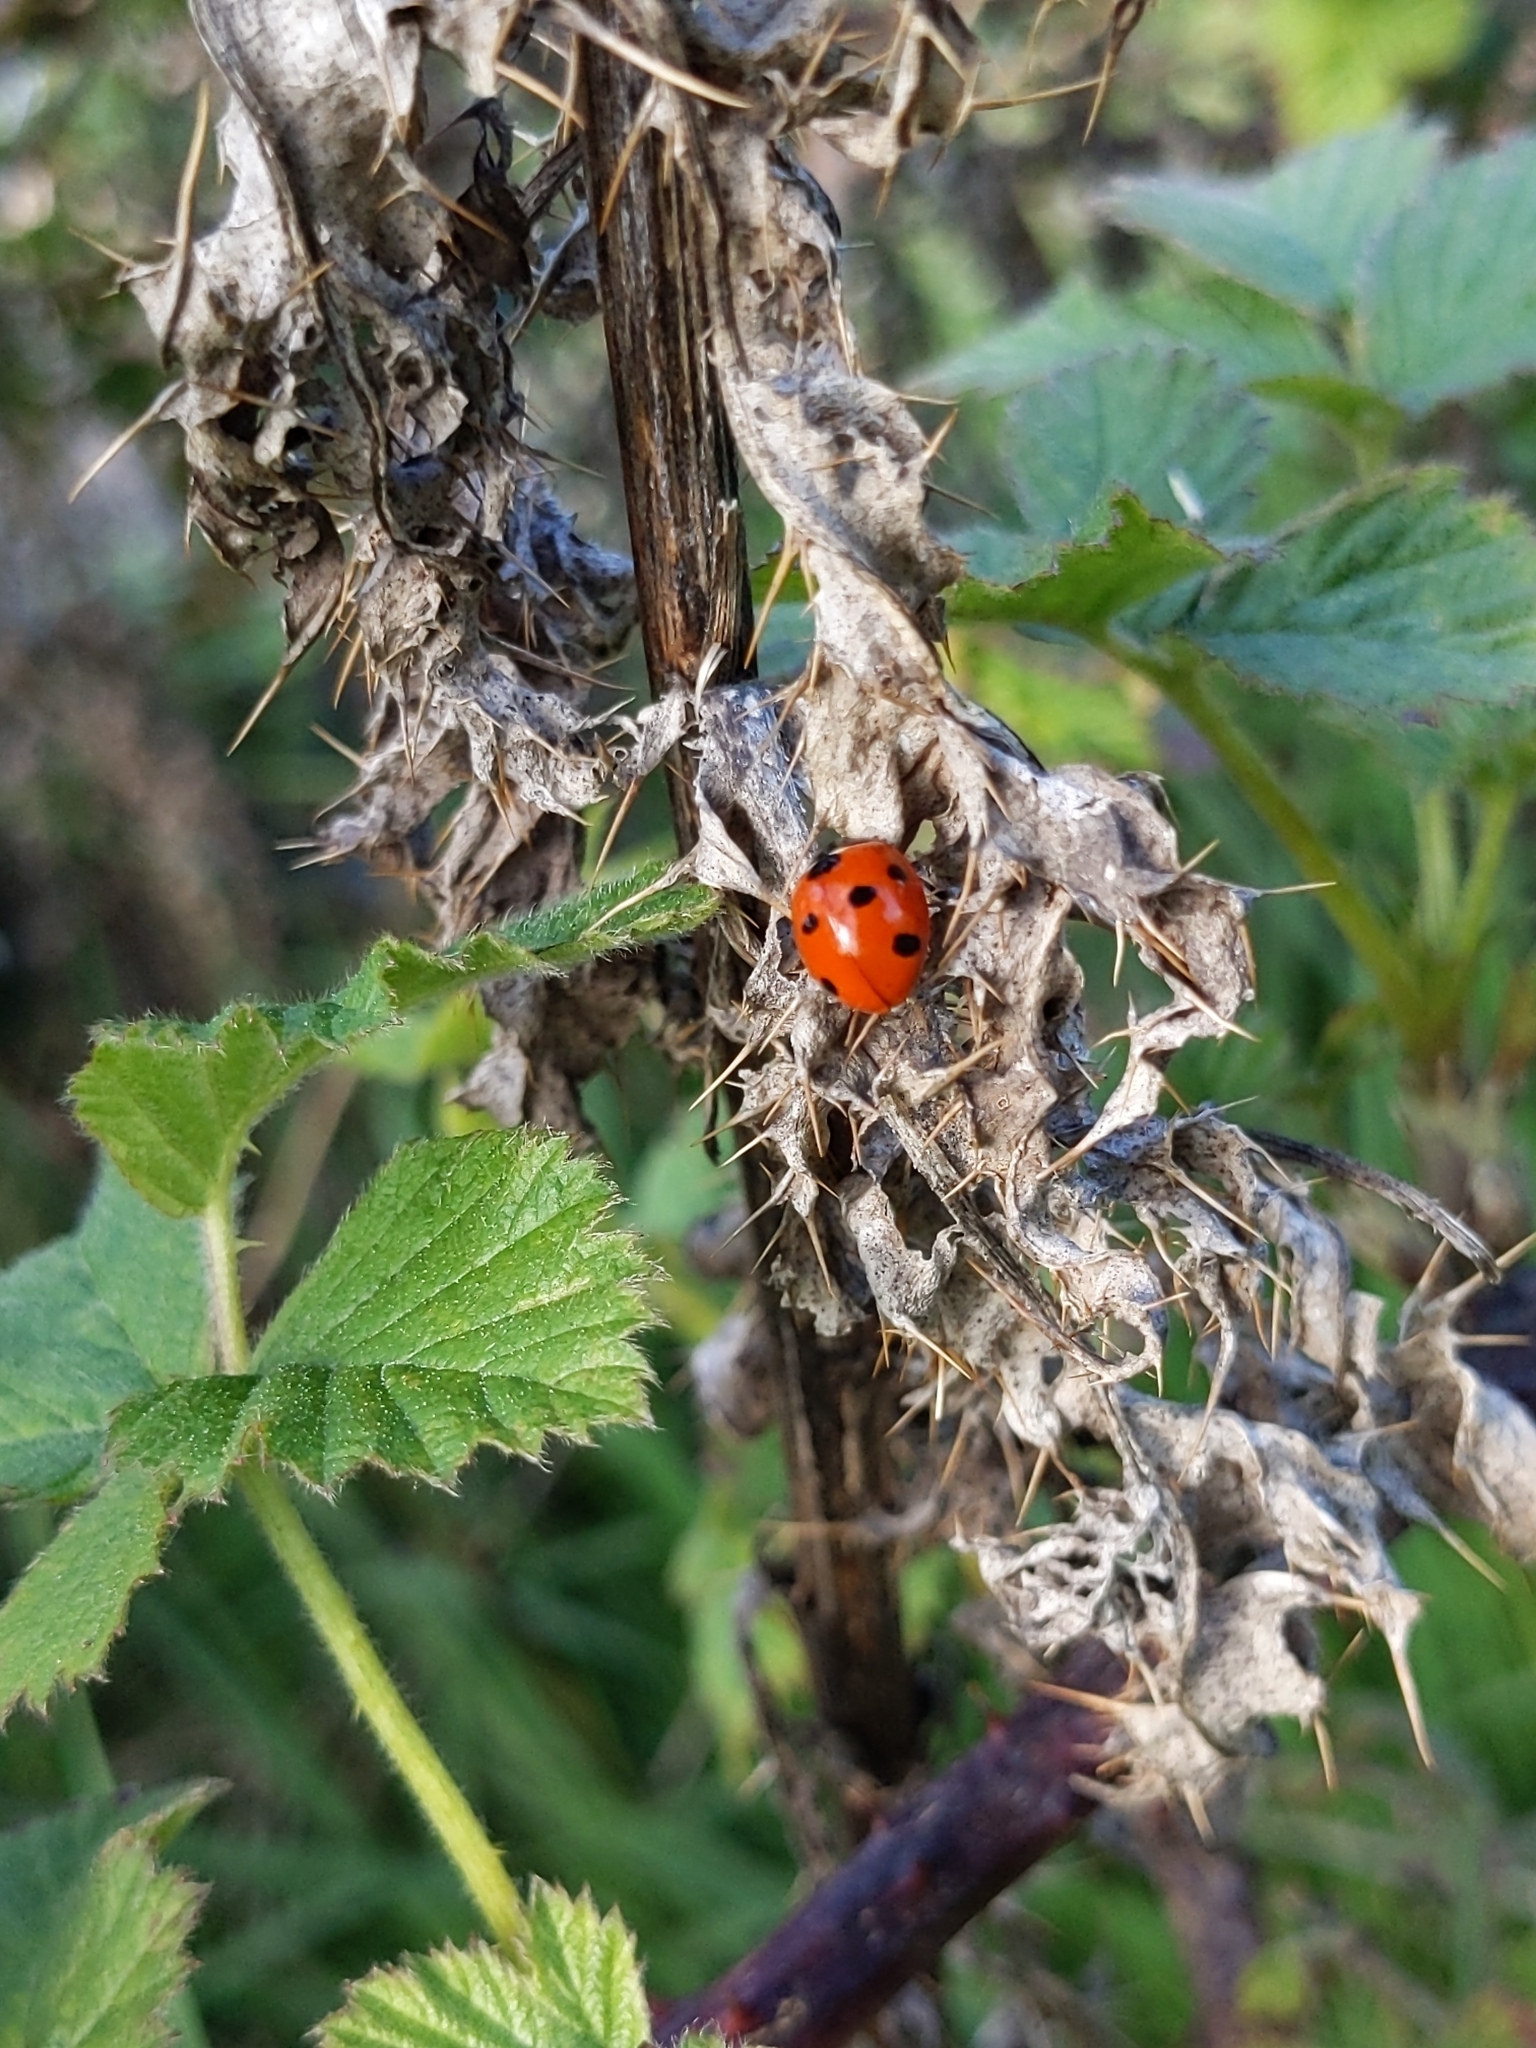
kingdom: Animalia
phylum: Arthropoda
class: Insecta
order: Coleoptera
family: Coccinellidae
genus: Coccinella
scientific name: Coccinella septempunctata
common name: Sevenspotted lady beetle
